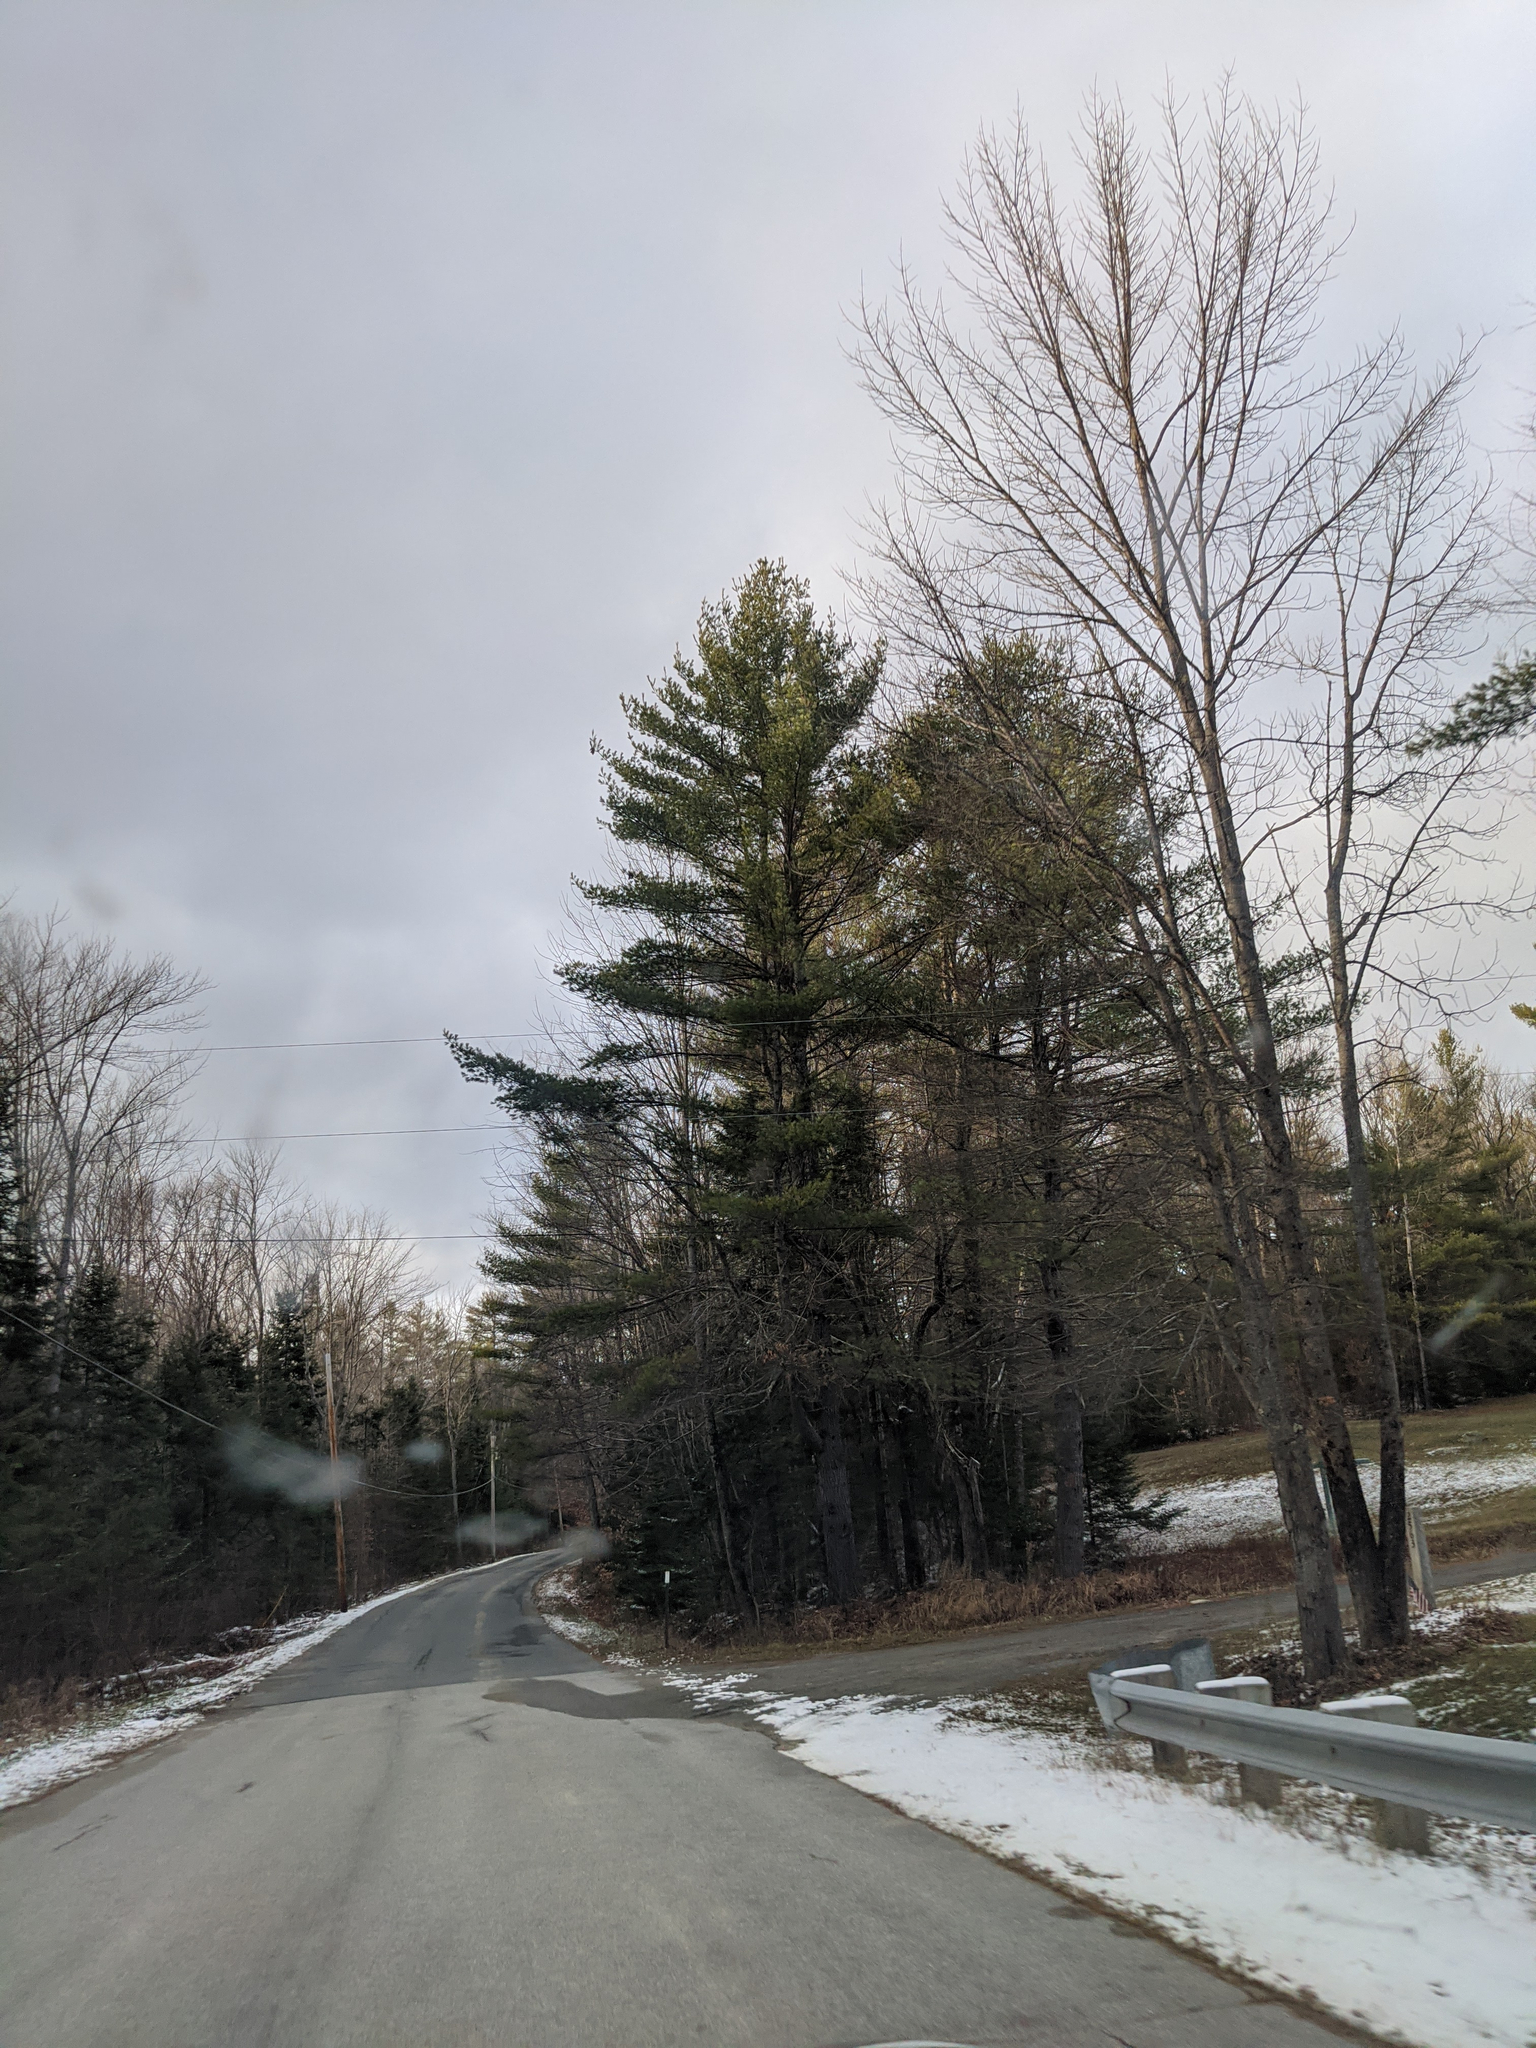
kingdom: Plantae
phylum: Tracheophyta
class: Pinopsida
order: Pinales
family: Pinaceae
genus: Pinus
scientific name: Pinus strobus
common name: Weymouth pine
